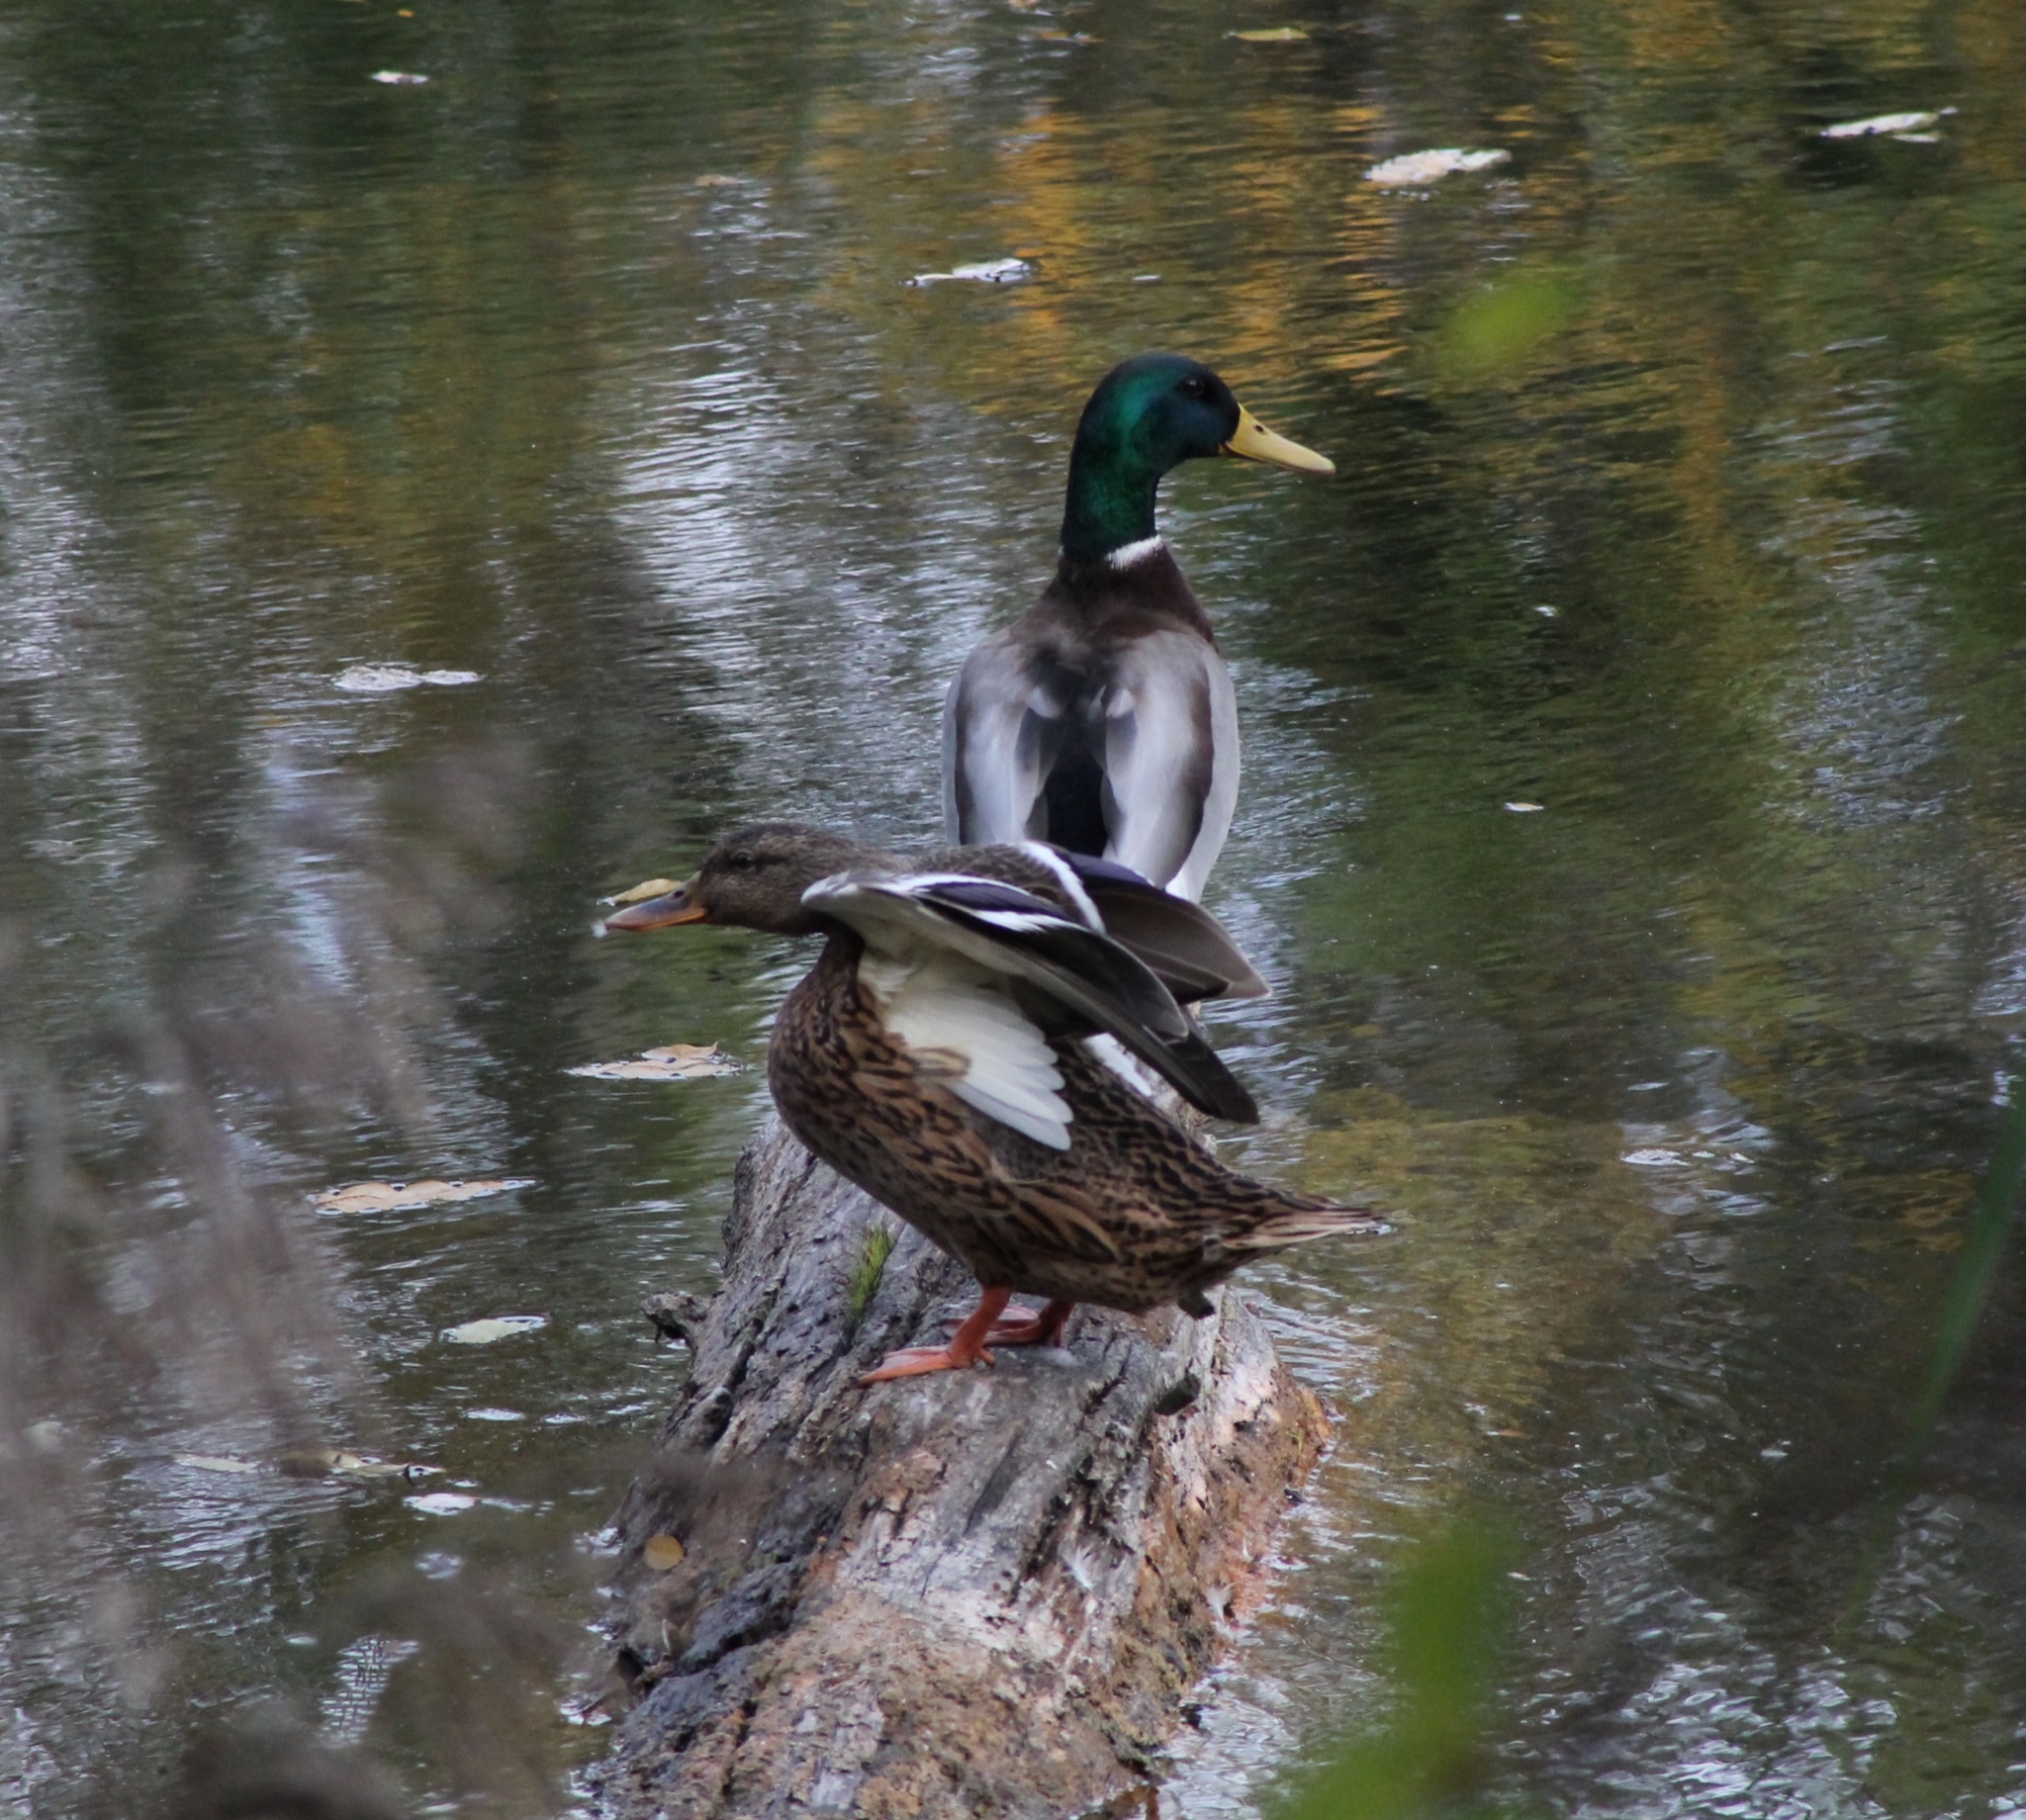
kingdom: Animalia
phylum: Chordata
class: Aves
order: Anseriformes
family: Anatidae
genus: Anas
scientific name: Anas platyrhynchos
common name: Mallard
